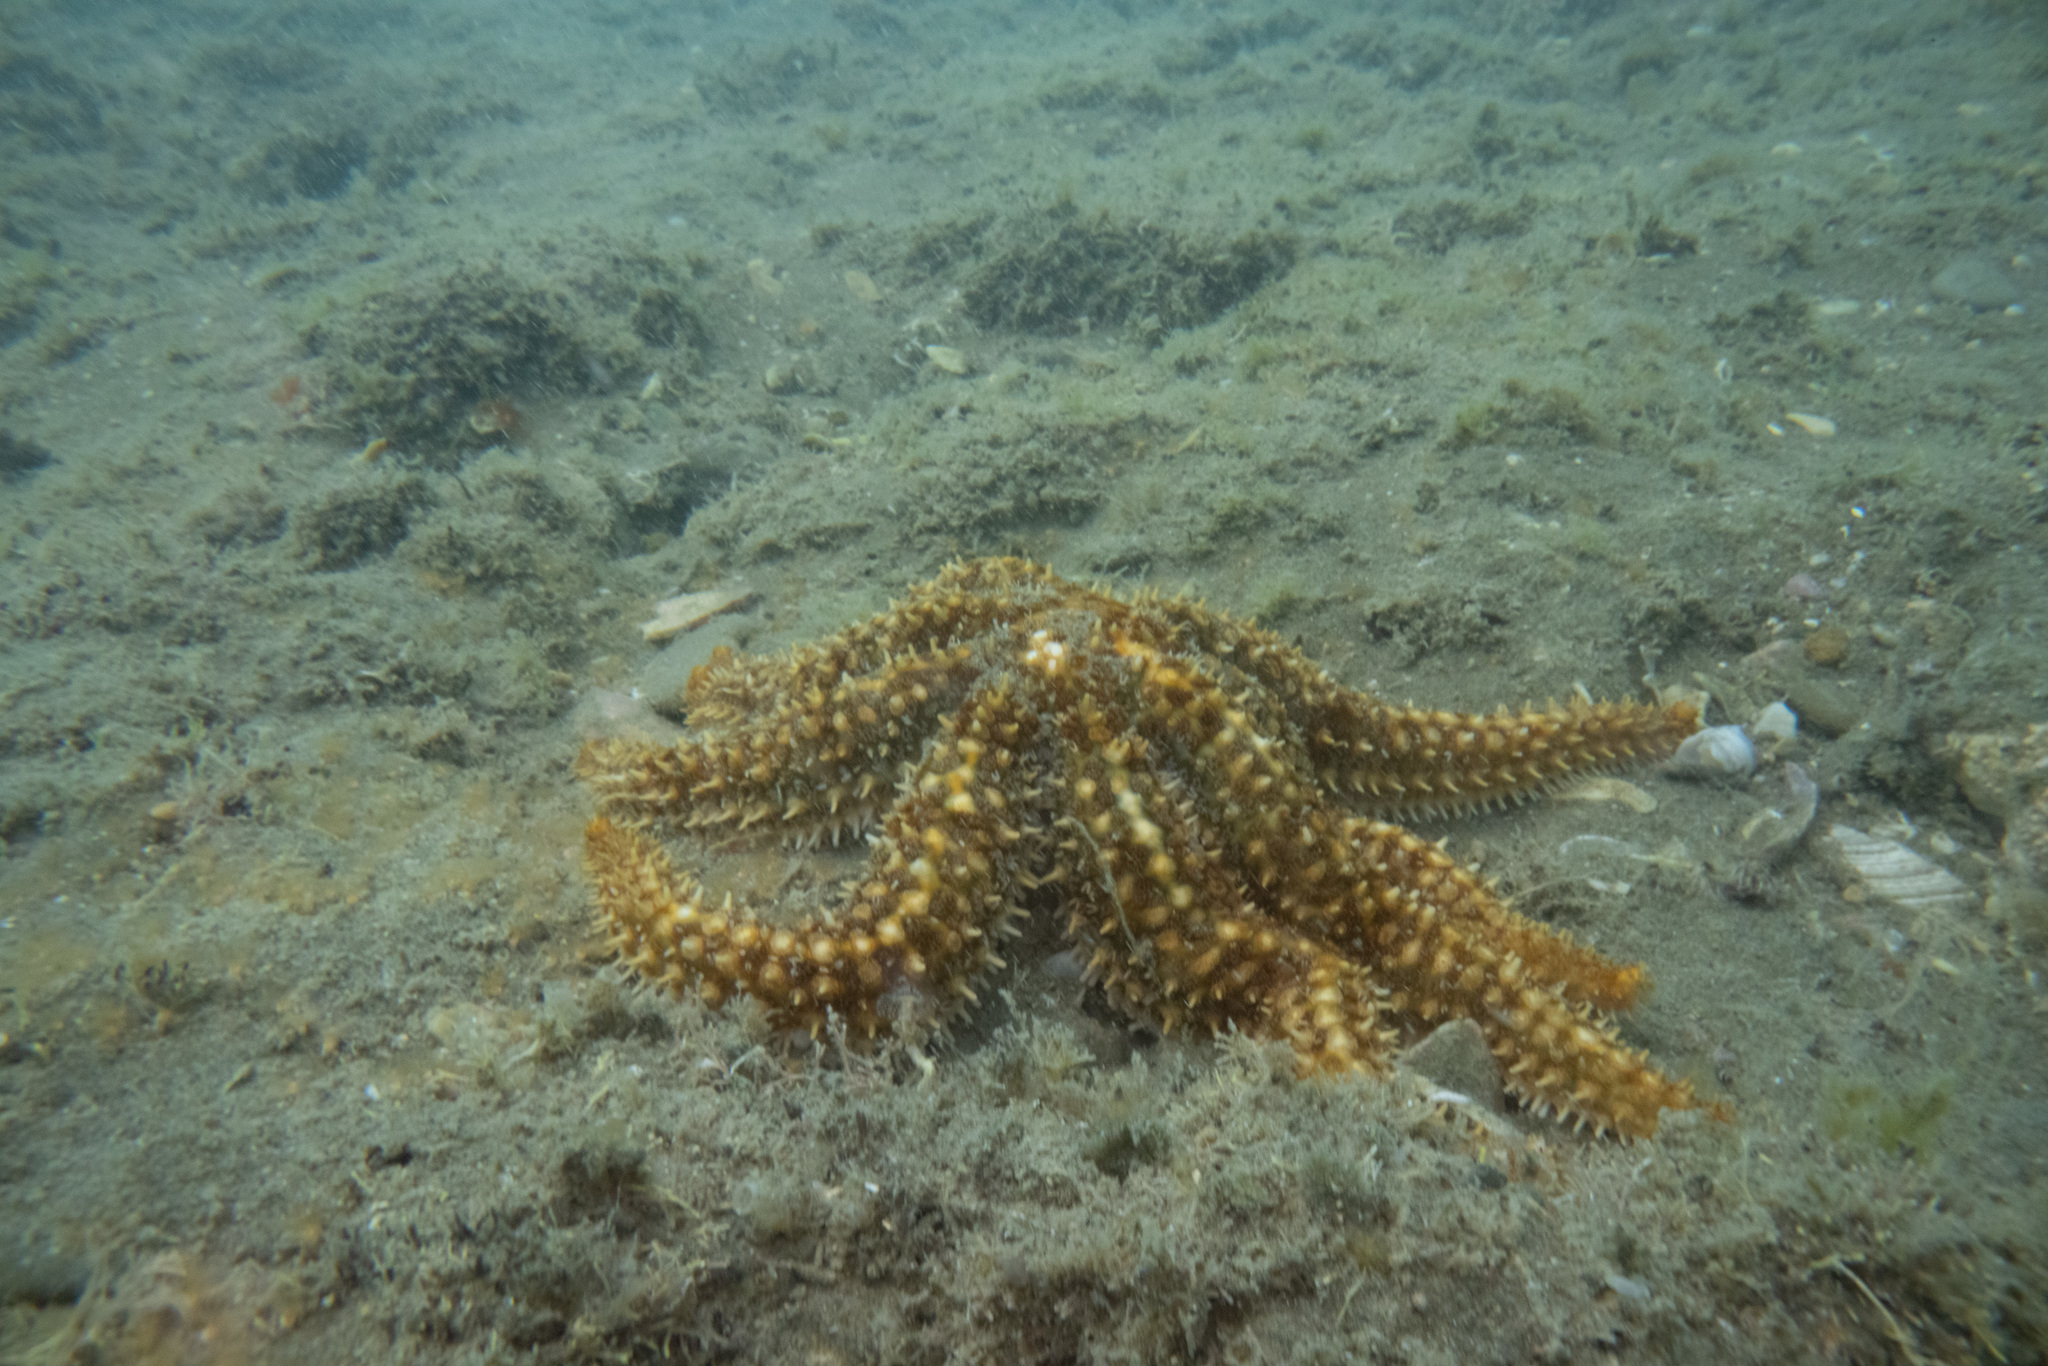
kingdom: Animalia
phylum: Echinodermata
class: Asteroidea
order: Forcipulatida
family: Asteriidae
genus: Coscinasterias
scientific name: Coscinasterias muricata
